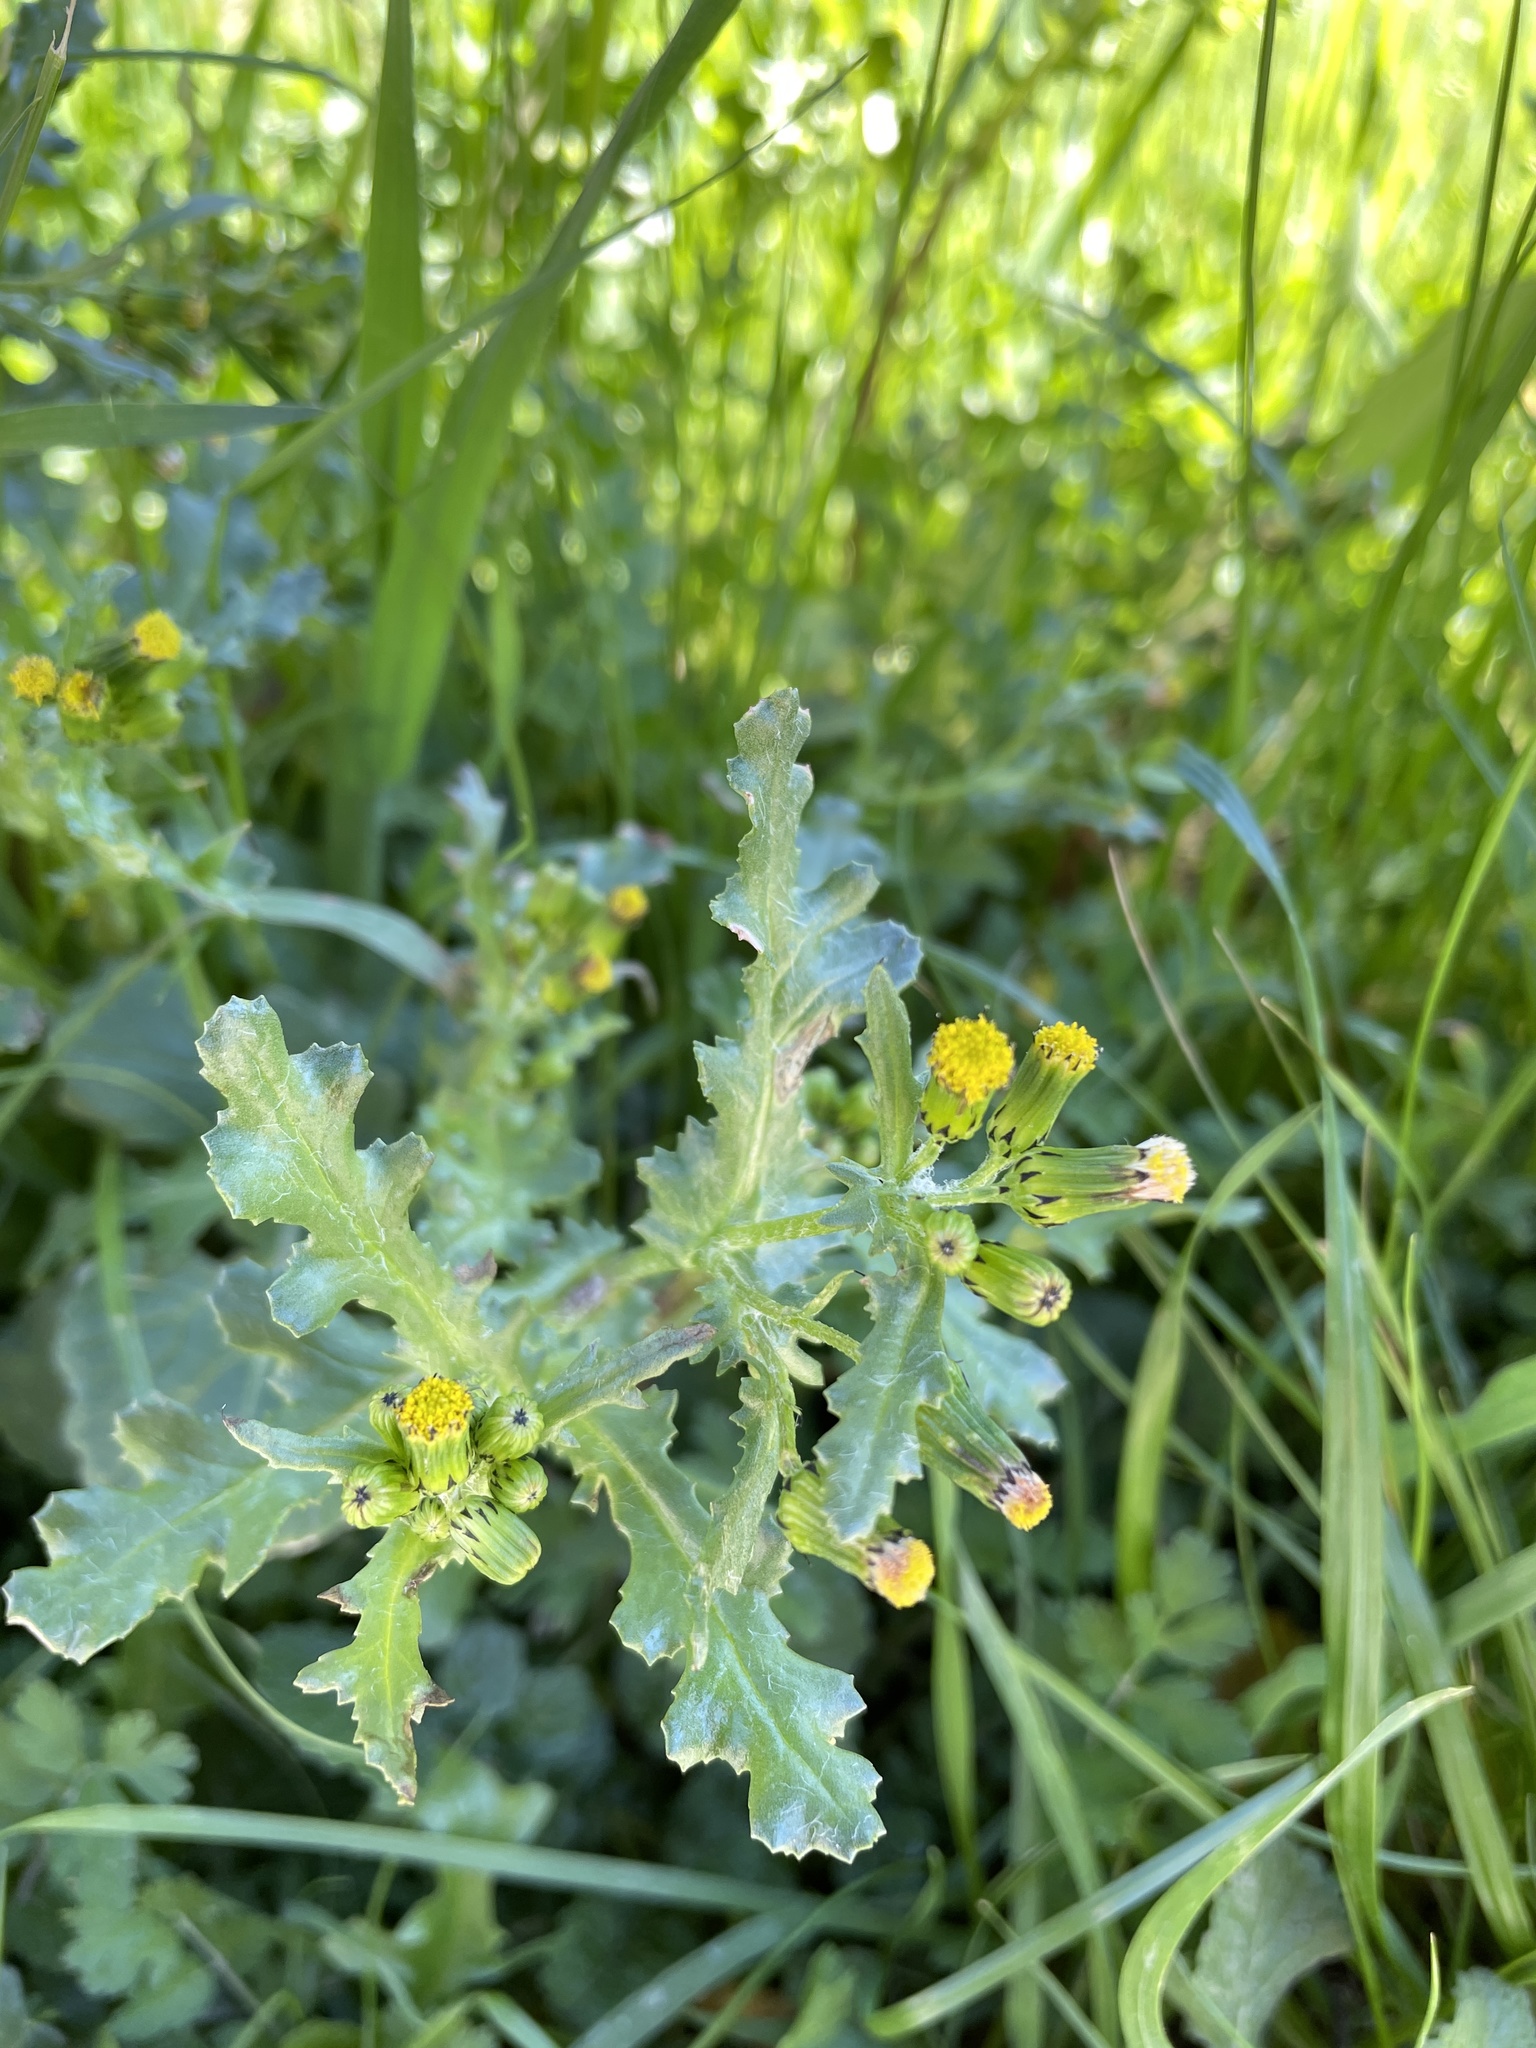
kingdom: Plantae
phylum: Tracheophyta
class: Magnoliopsida
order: Asterales
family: Asteraceae
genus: Senecio
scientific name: Senecio vulgaris
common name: Old-man-in-the-spring
